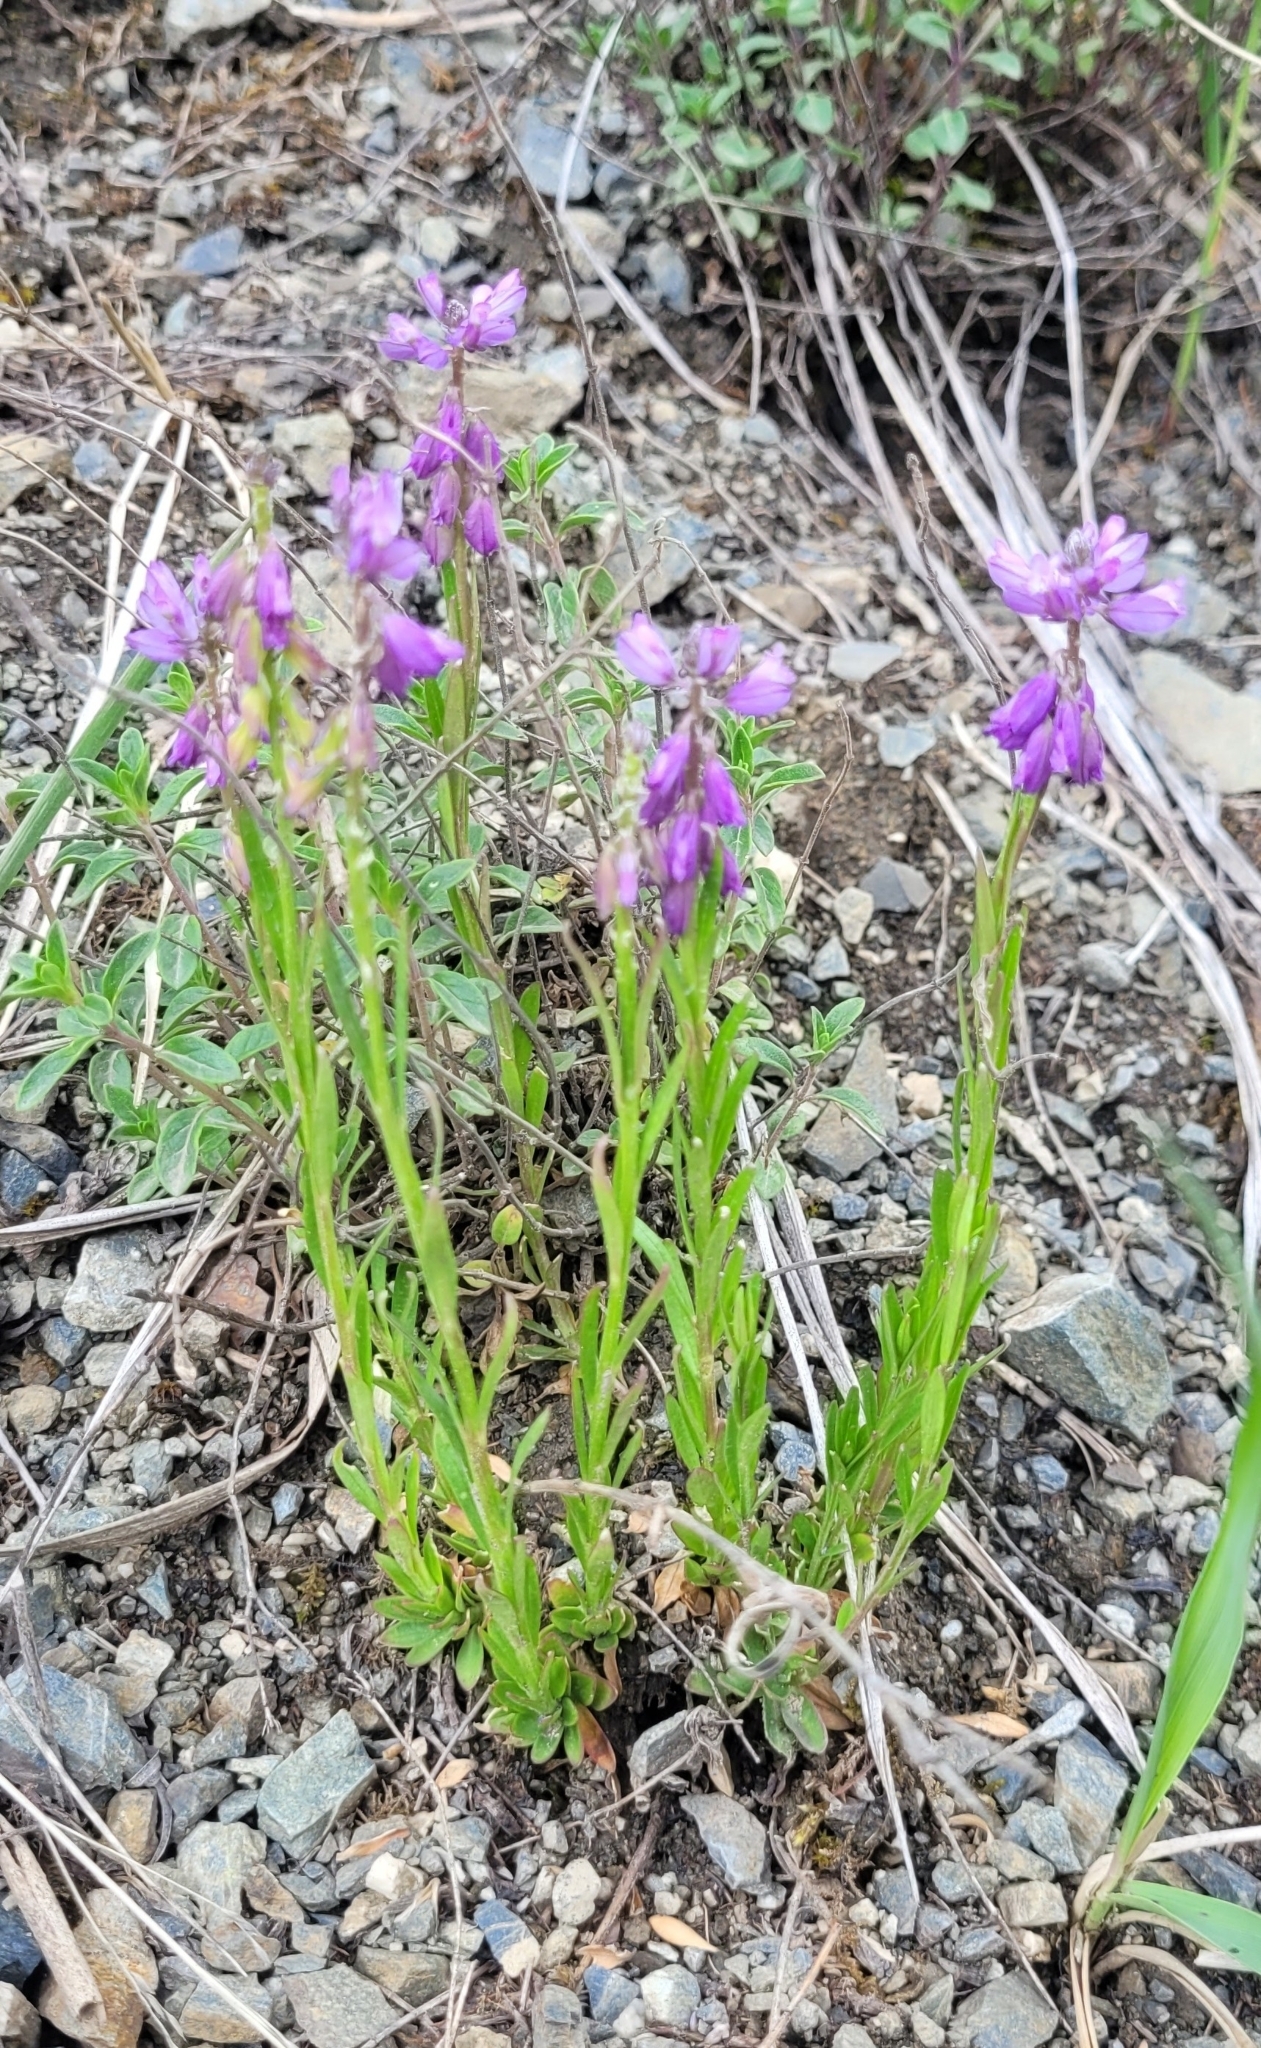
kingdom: Plantae
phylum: Tracheophyta
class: Magnoliopsida
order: Fabales
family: Polygalaceae
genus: Polygala
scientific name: Polygala comosa
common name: Tufted milkwort
